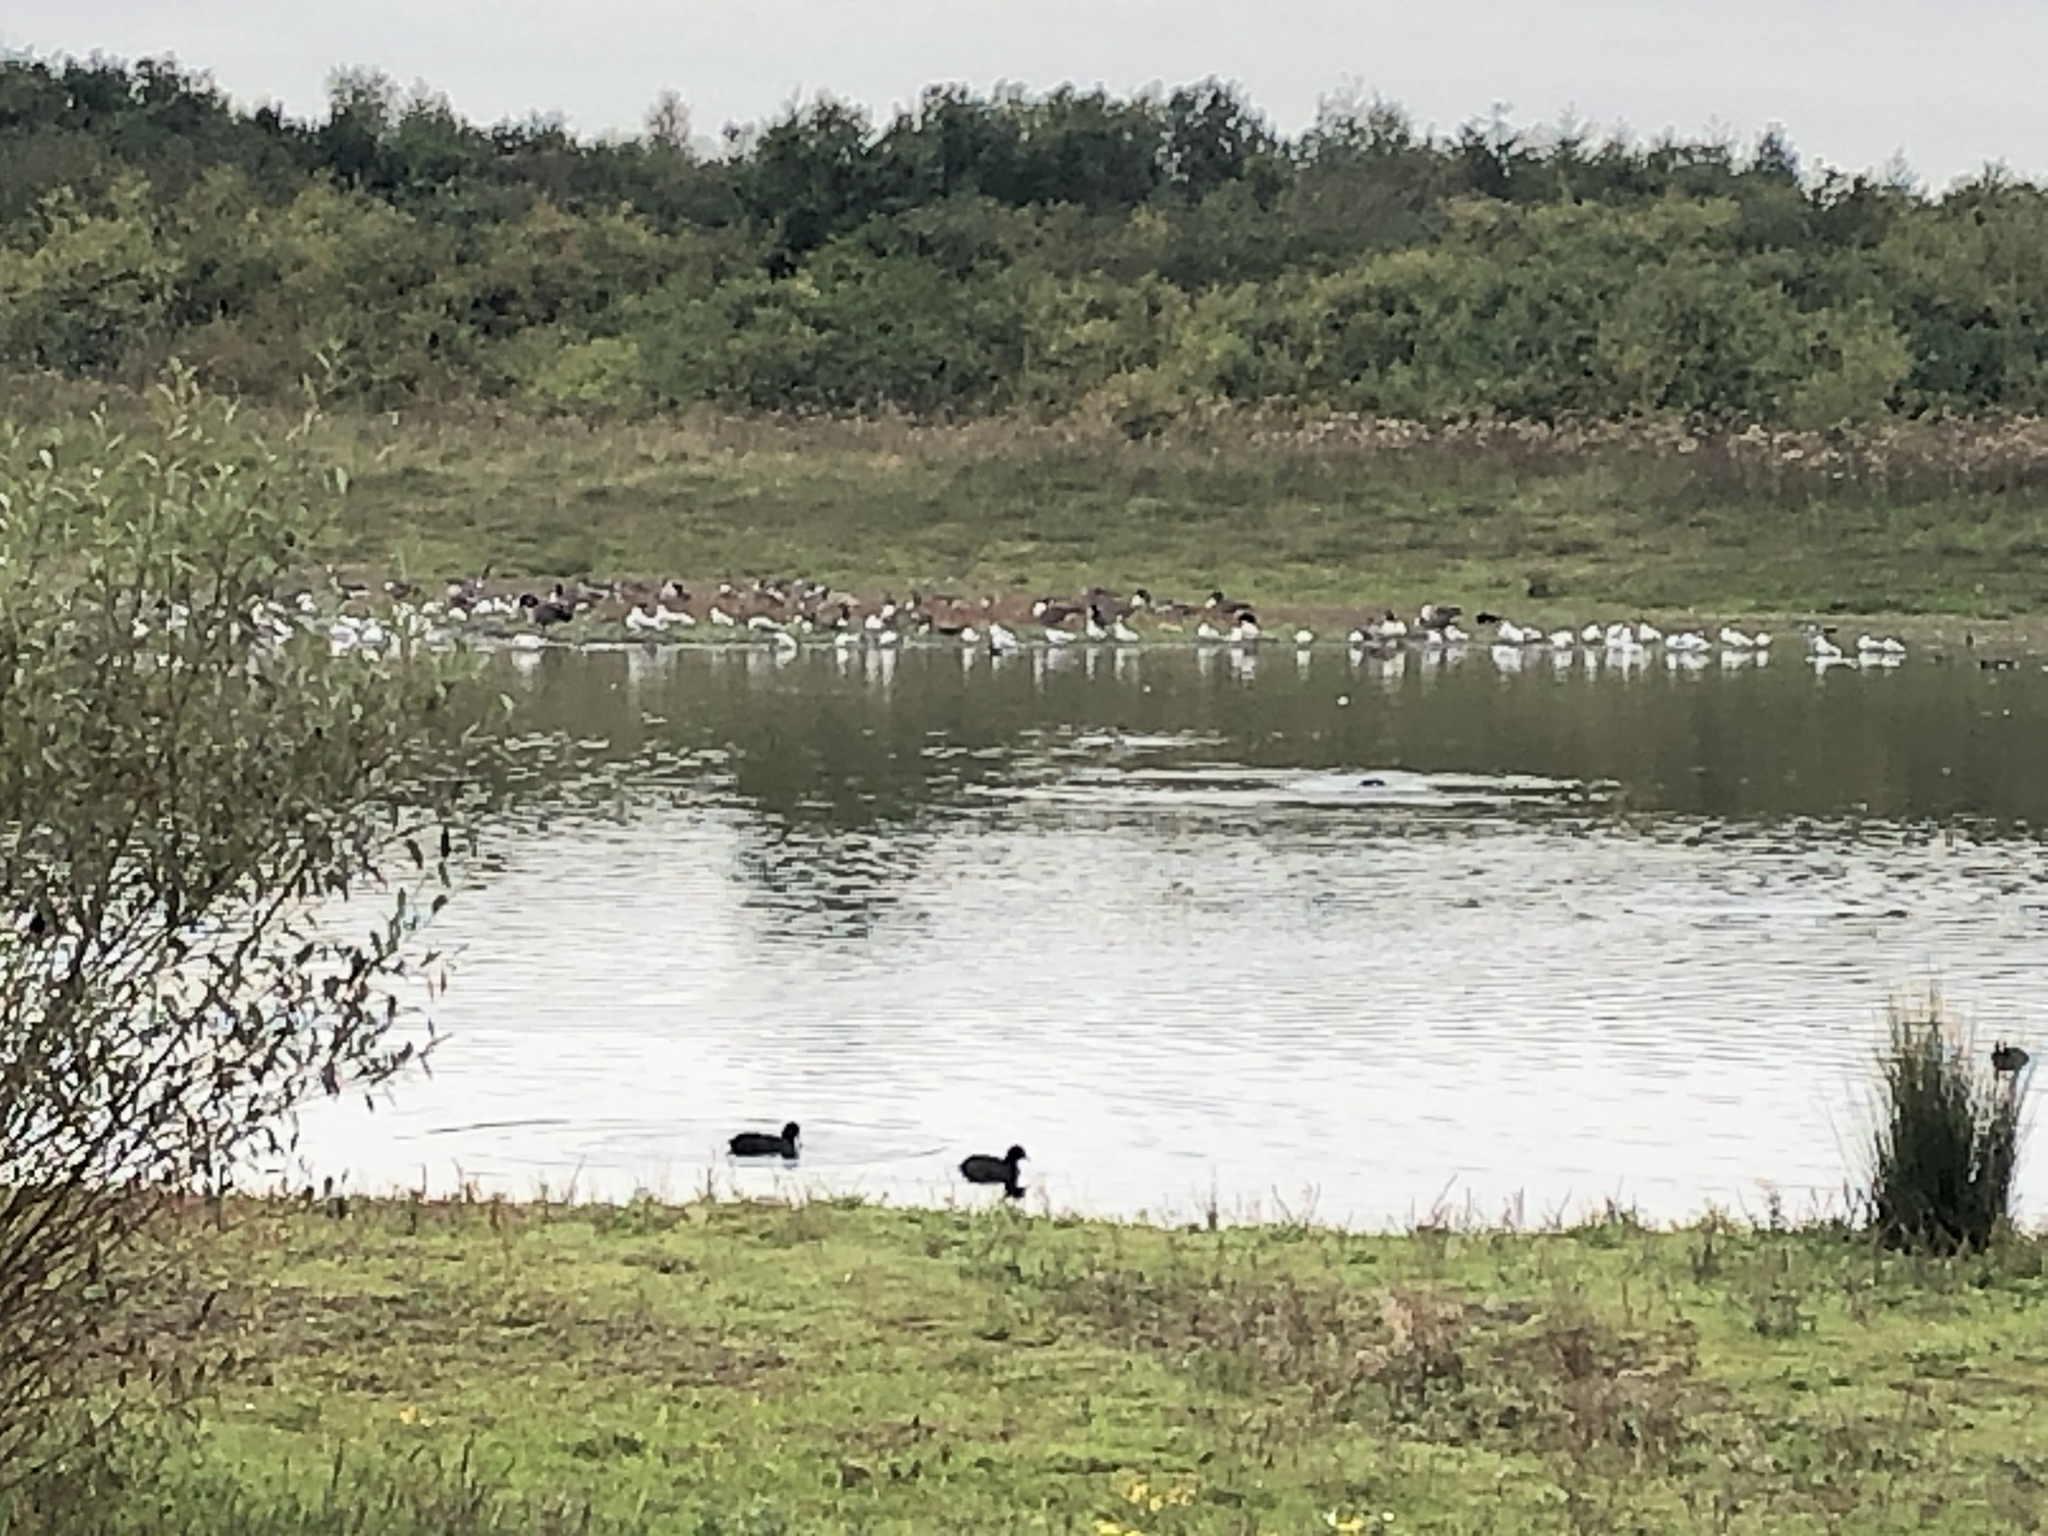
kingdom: Animalia
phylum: Chordata
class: Aves
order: Anseriformes
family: Anatidae
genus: Branta
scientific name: Branta canadensis
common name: Canada goose
